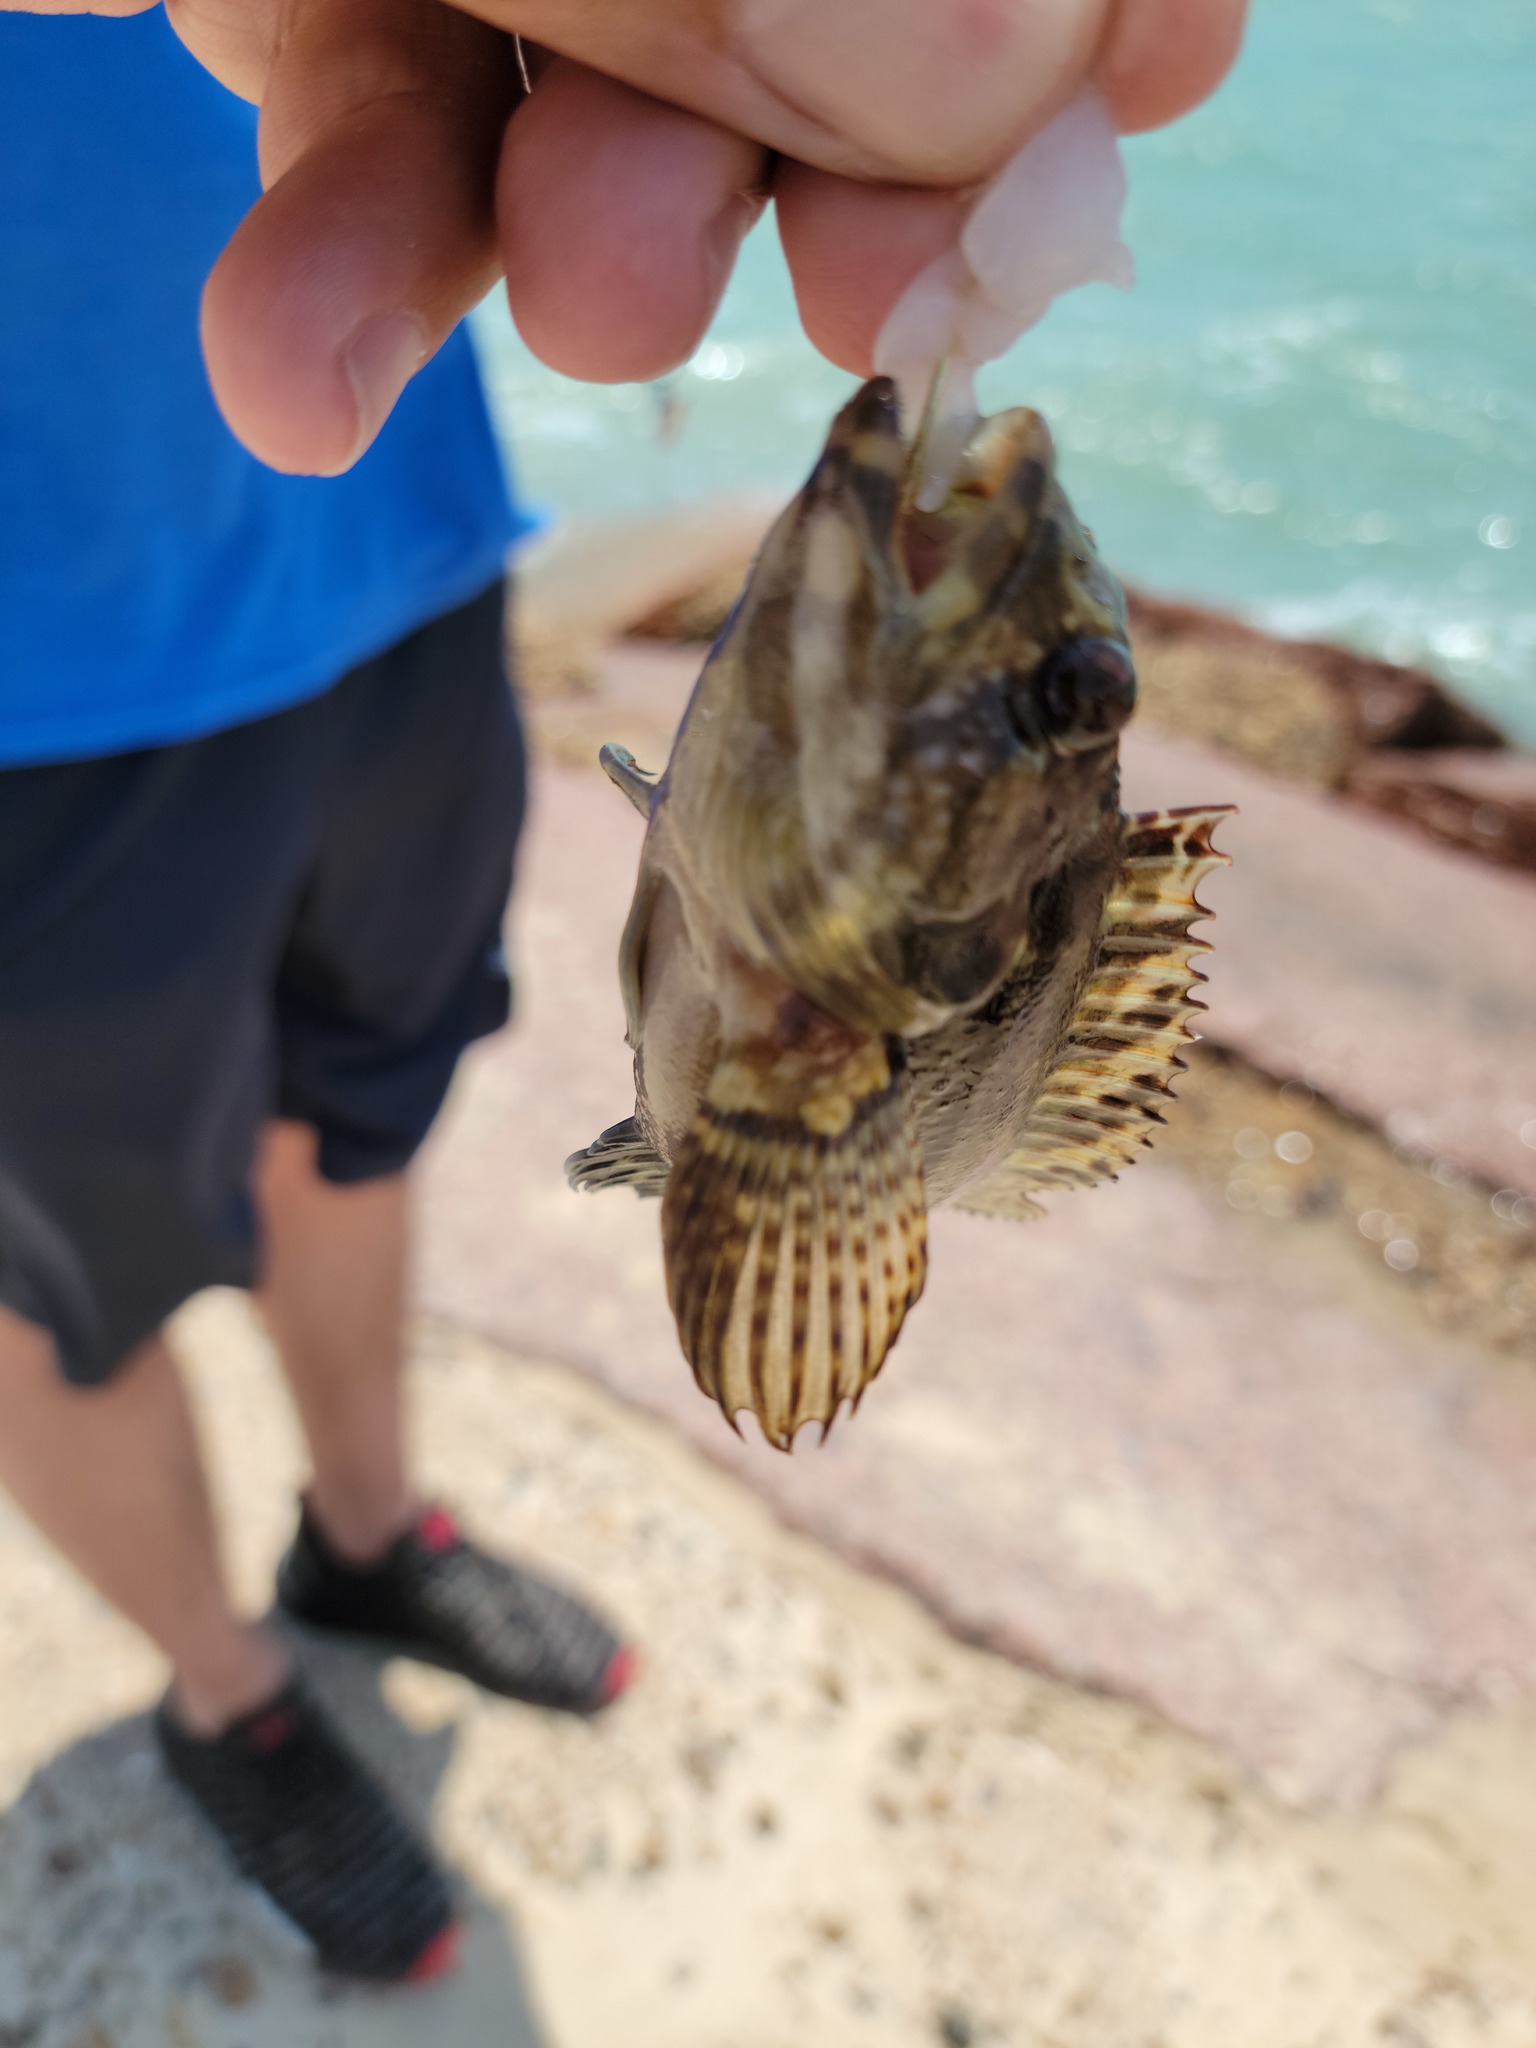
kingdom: Animalia
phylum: Chordata
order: Perciformes
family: Labrisomidae
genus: Labrisomus
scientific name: Labrisomus nuchipinnis
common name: Hairy blenny
